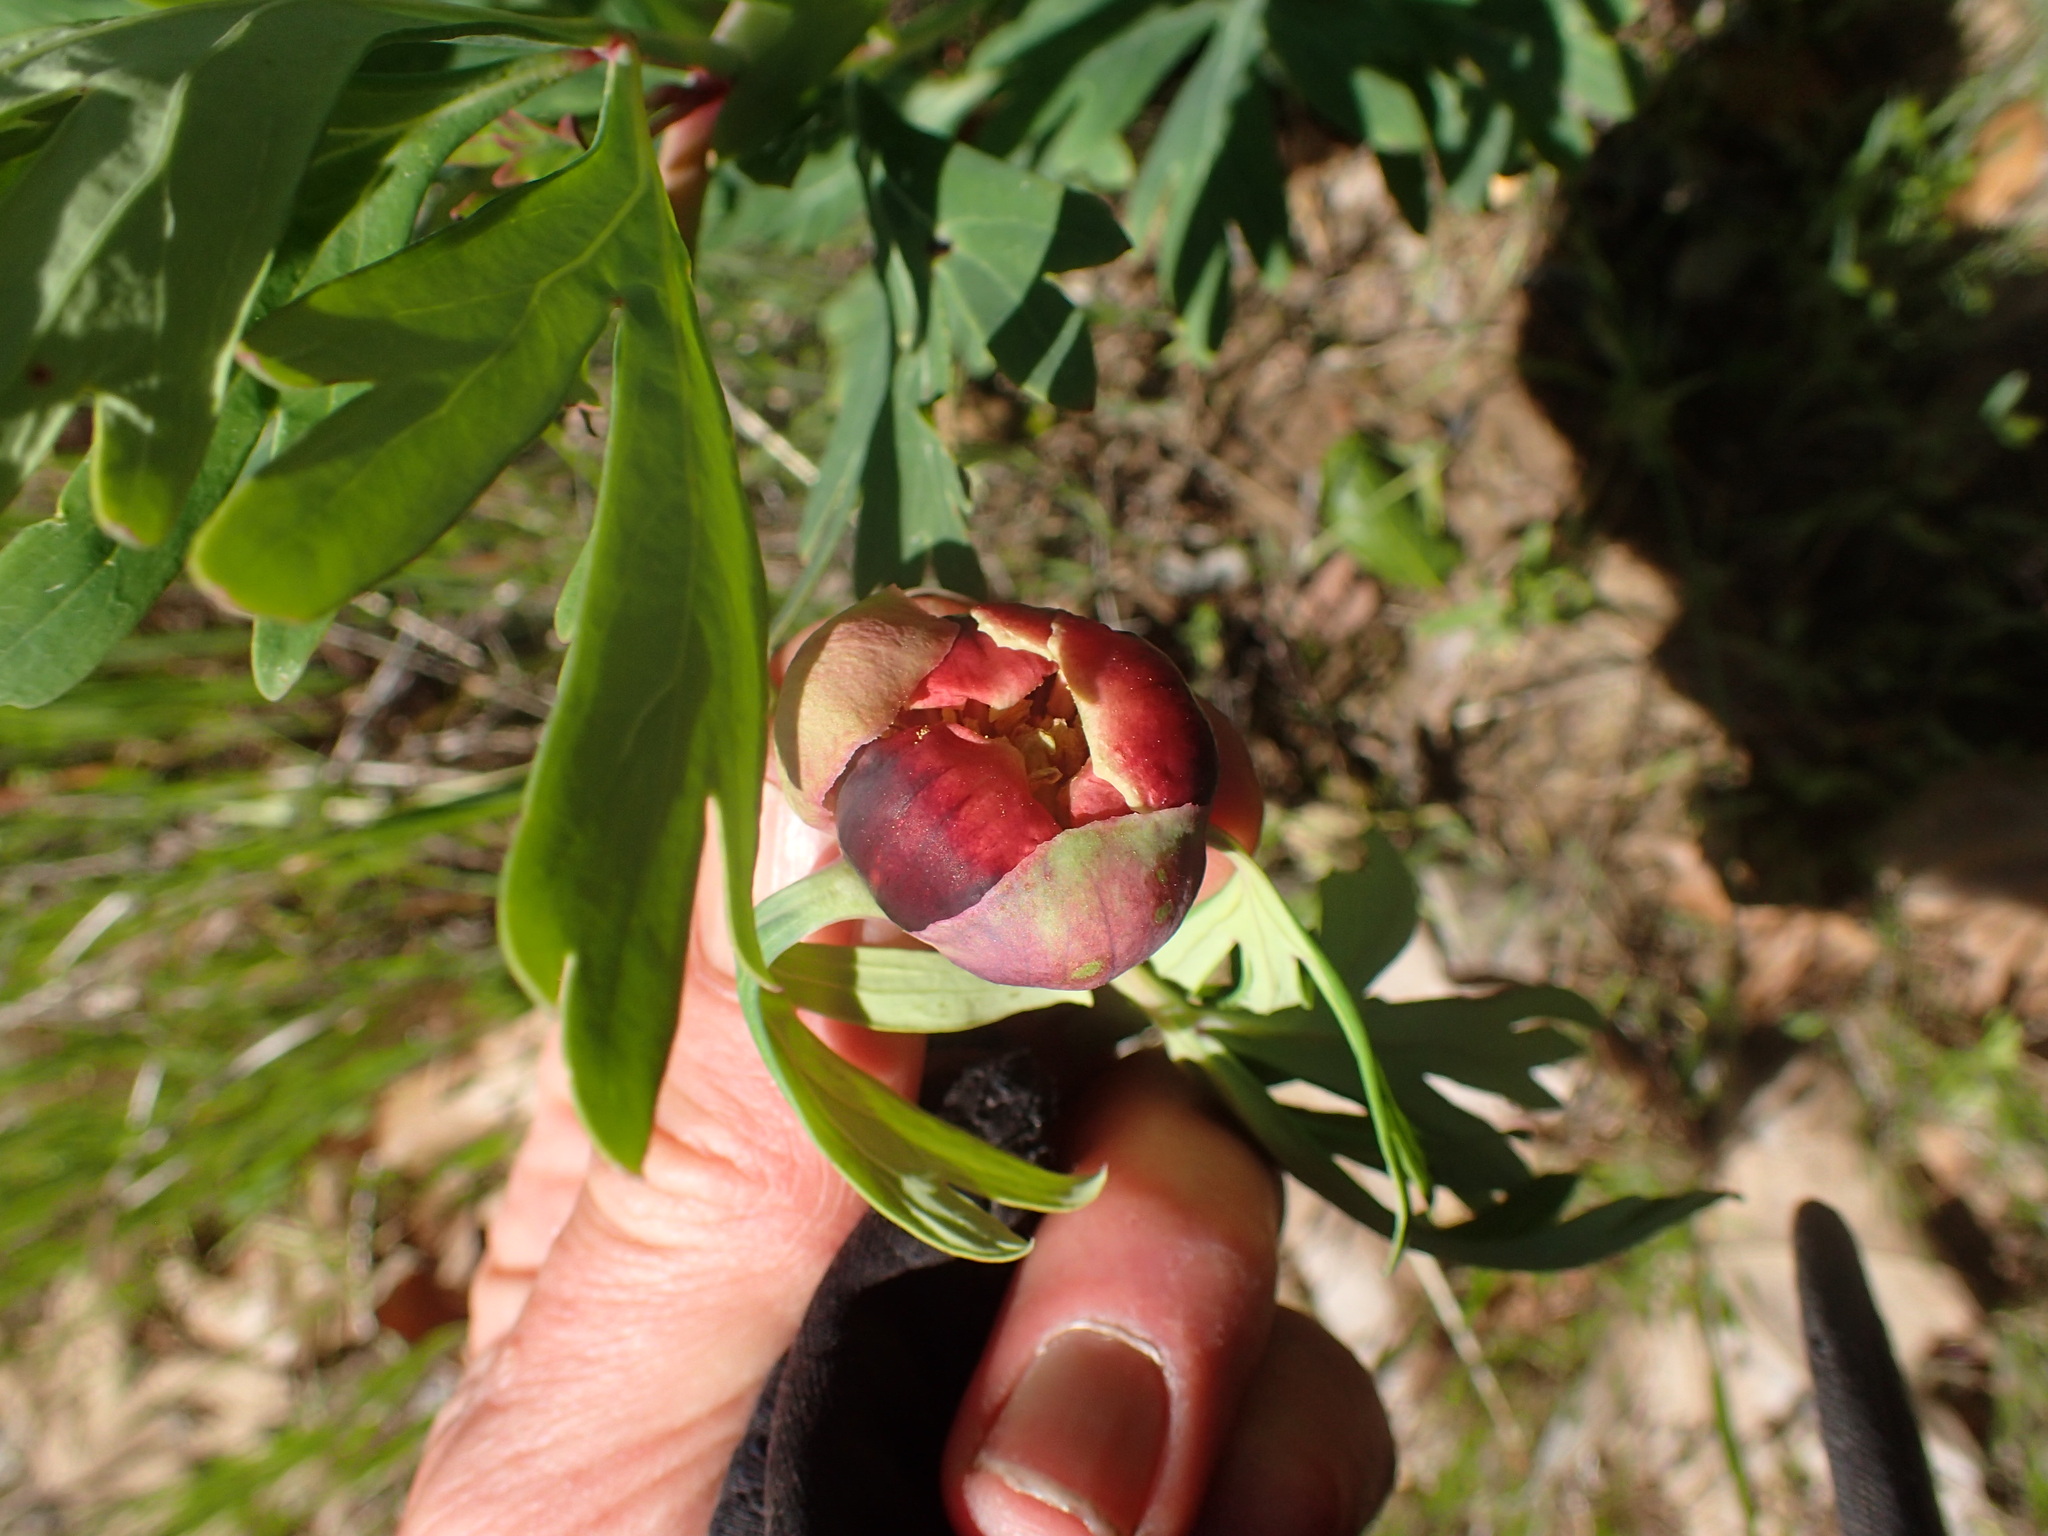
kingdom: Plantae
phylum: Tracheophyta
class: Magnoliopsida
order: Saxifragales
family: Paeoniaceae
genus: Paeonia
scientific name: Paeonia californica
